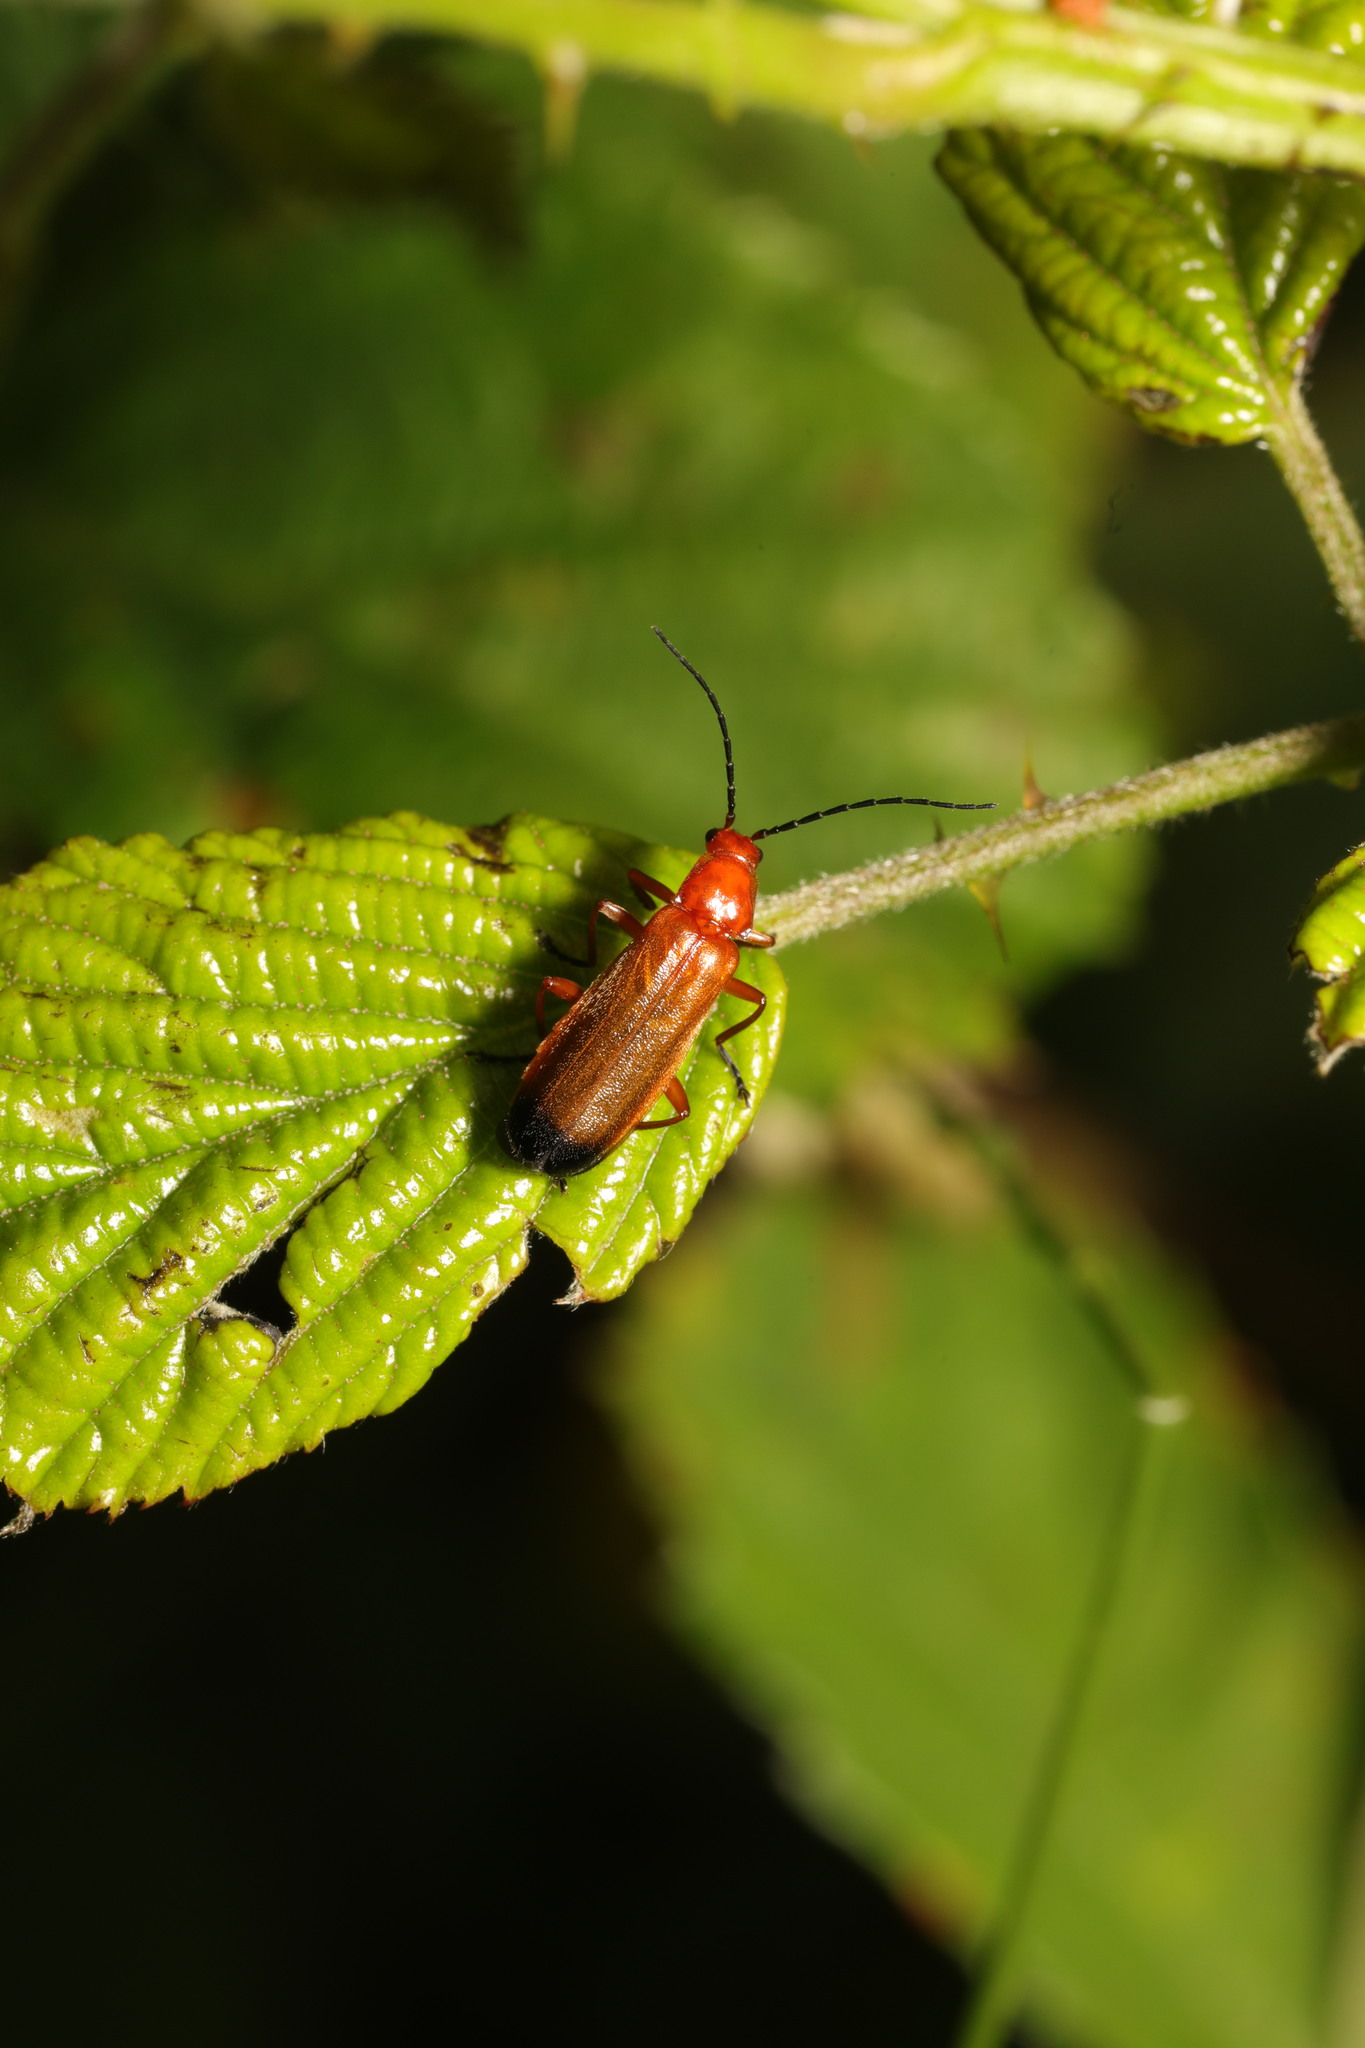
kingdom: Animalia
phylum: Arthropoda
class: Insecta
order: Coleoptera
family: Cantharidae
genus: Rhagonycha
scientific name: Rhagonycha fulva
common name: Common red soldier beetle
